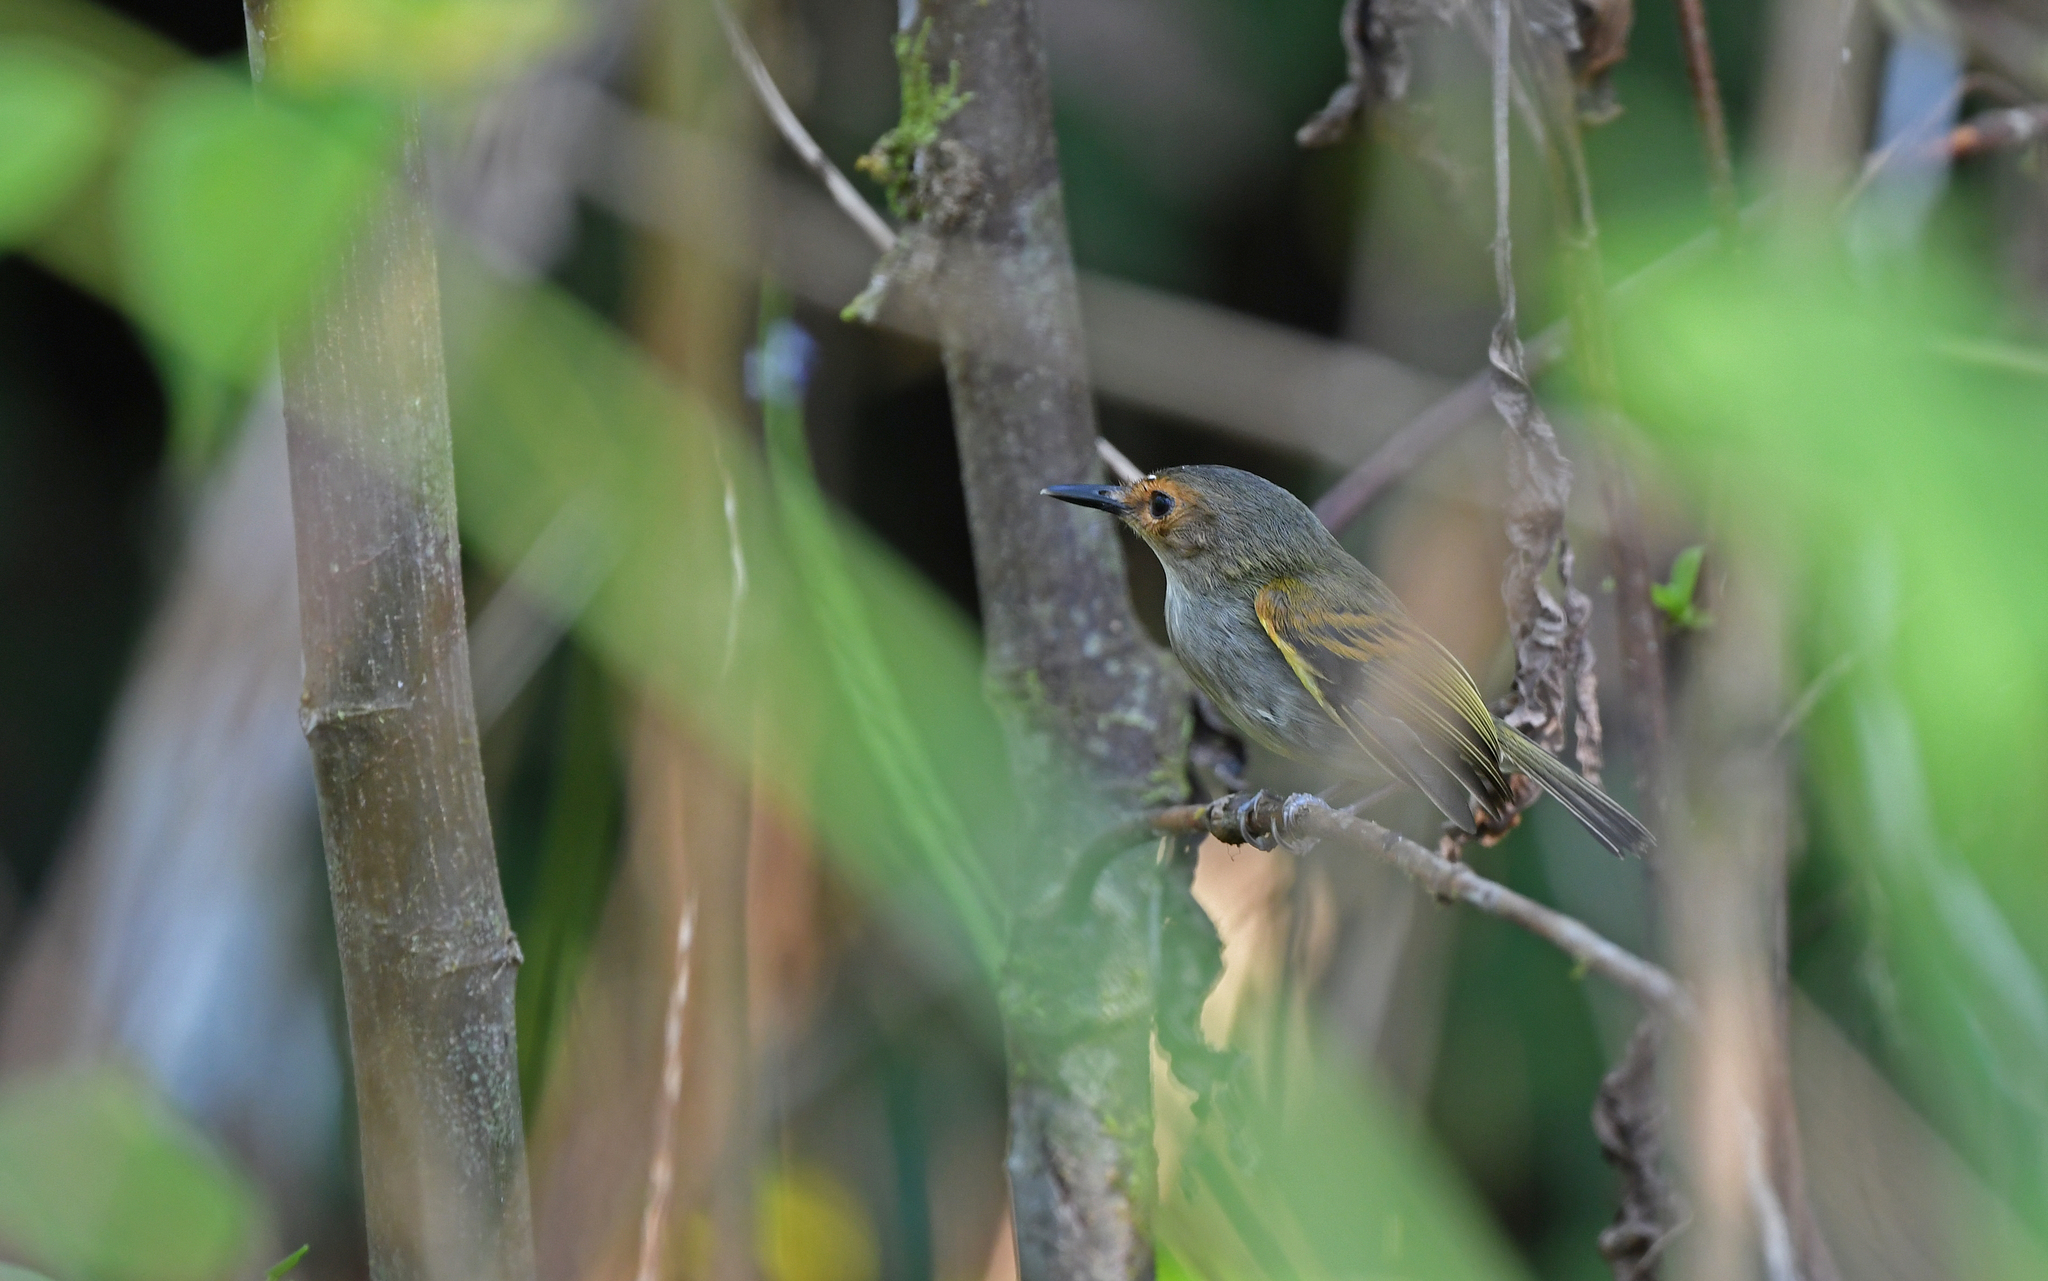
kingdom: Animalia
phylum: Chordata
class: Aves
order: Passeriformes
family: Tyrannidae
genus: Poecilotriccus
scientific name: Poecilotriccus latirostris
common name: Rusty-fronted tody-flycatcher
